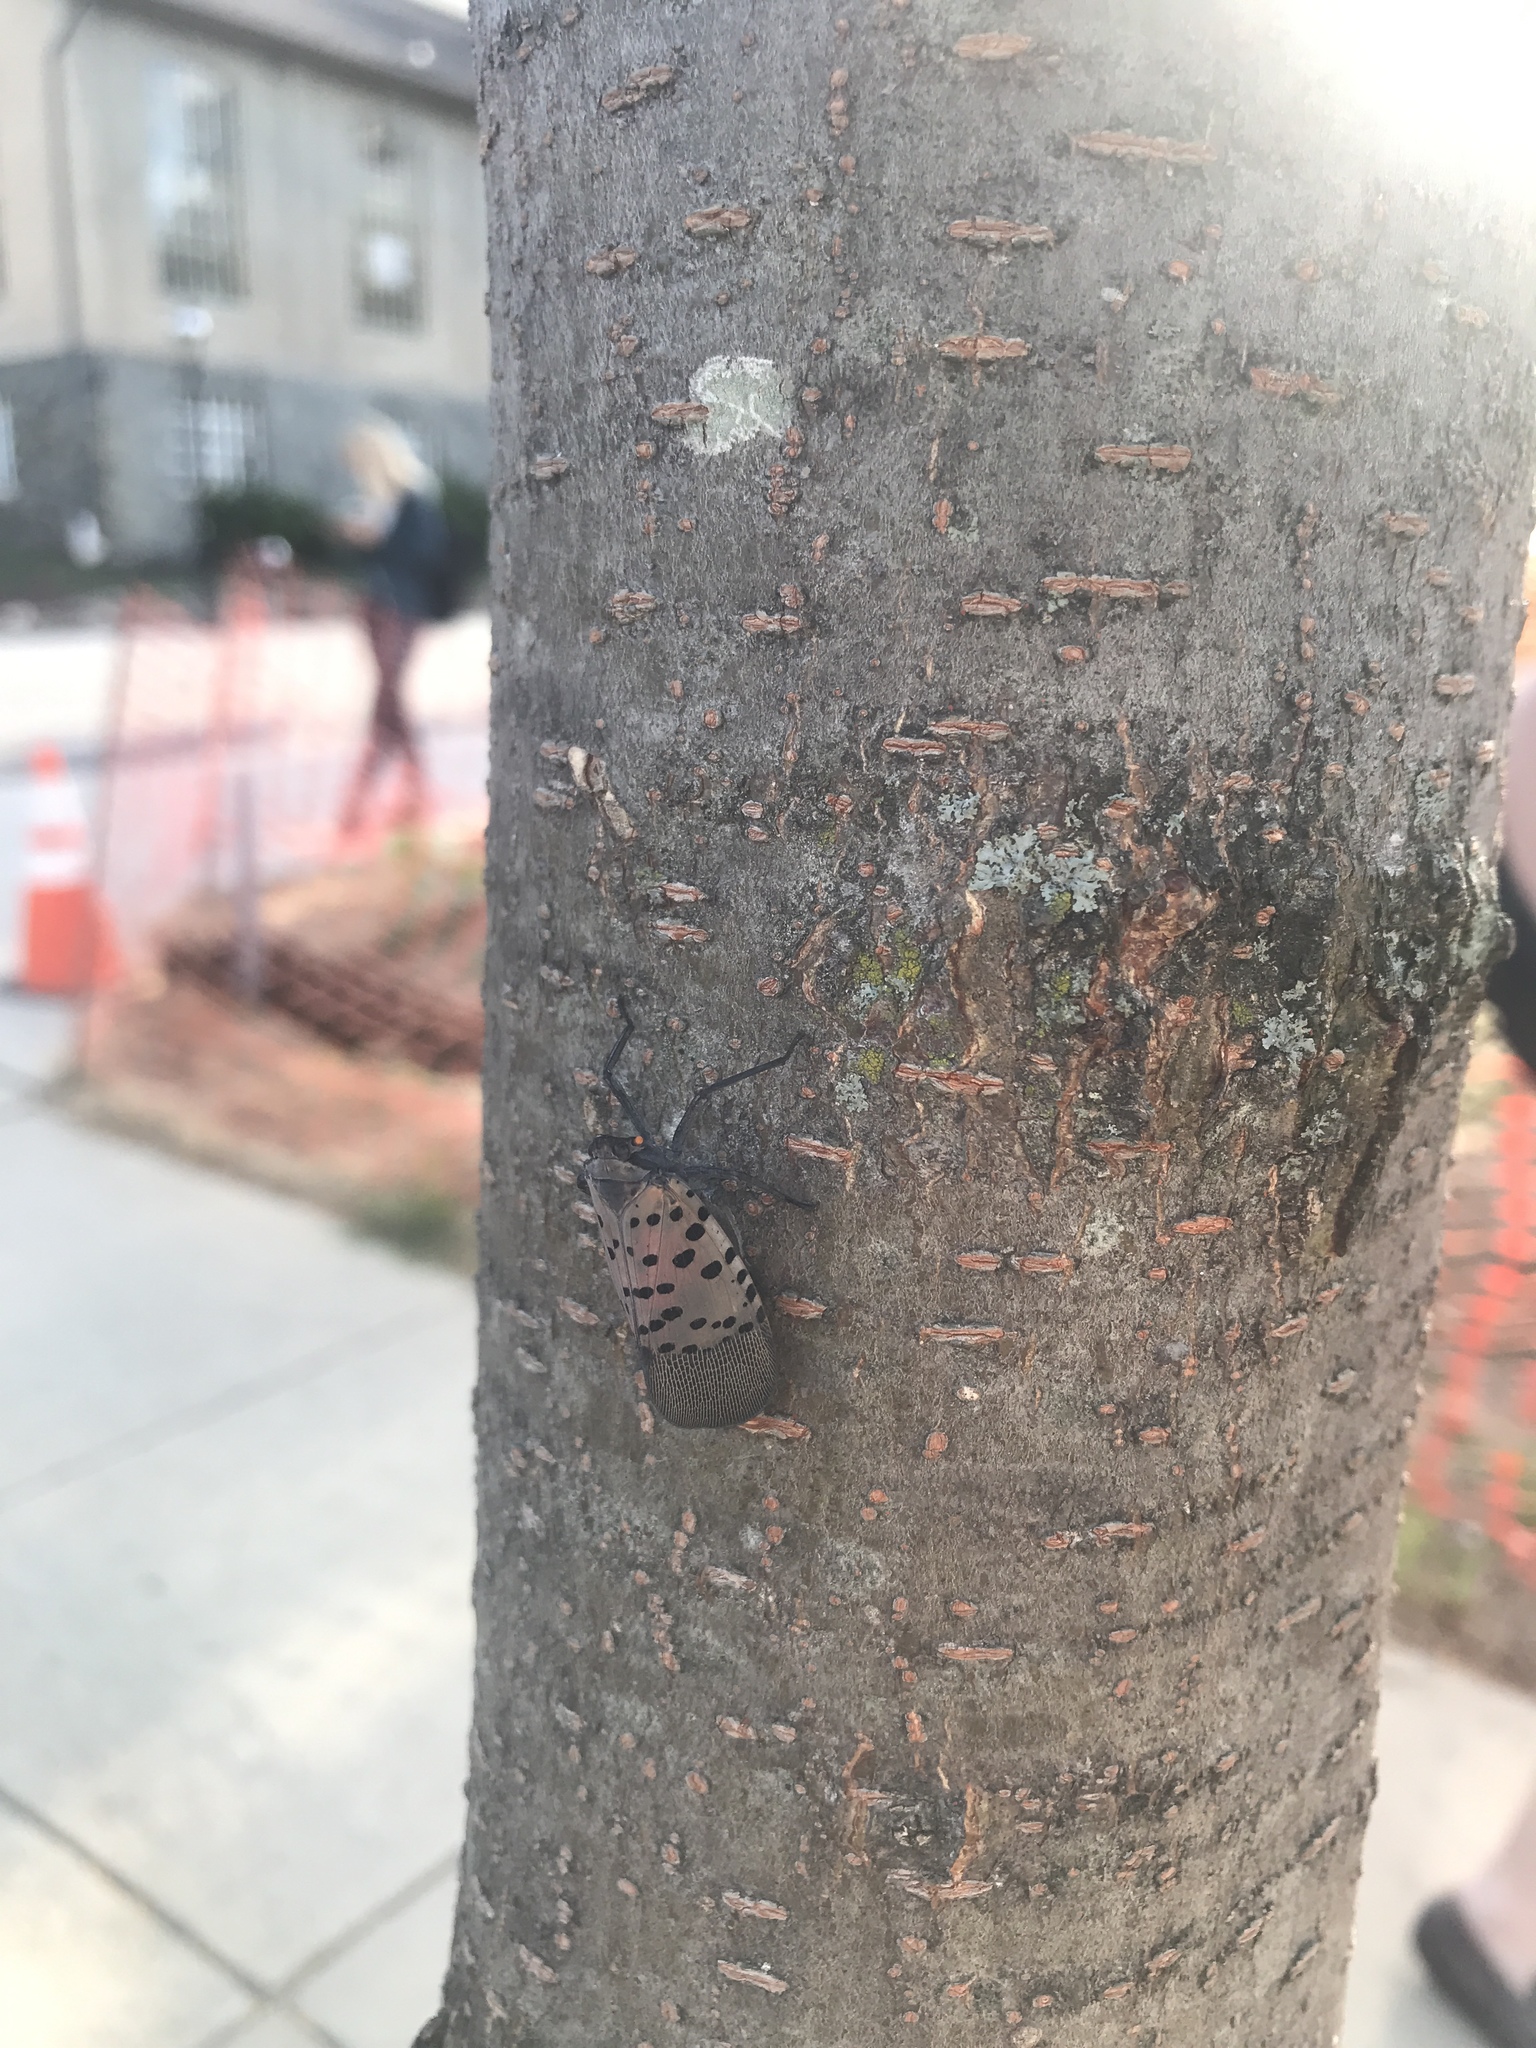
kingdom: Animalia
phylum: Arthropoda
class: Insecta
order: Hemiptera
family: Fulgoridae
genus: Lycorma
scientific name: Lycorma delicatula
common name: Spotted lanternfly
